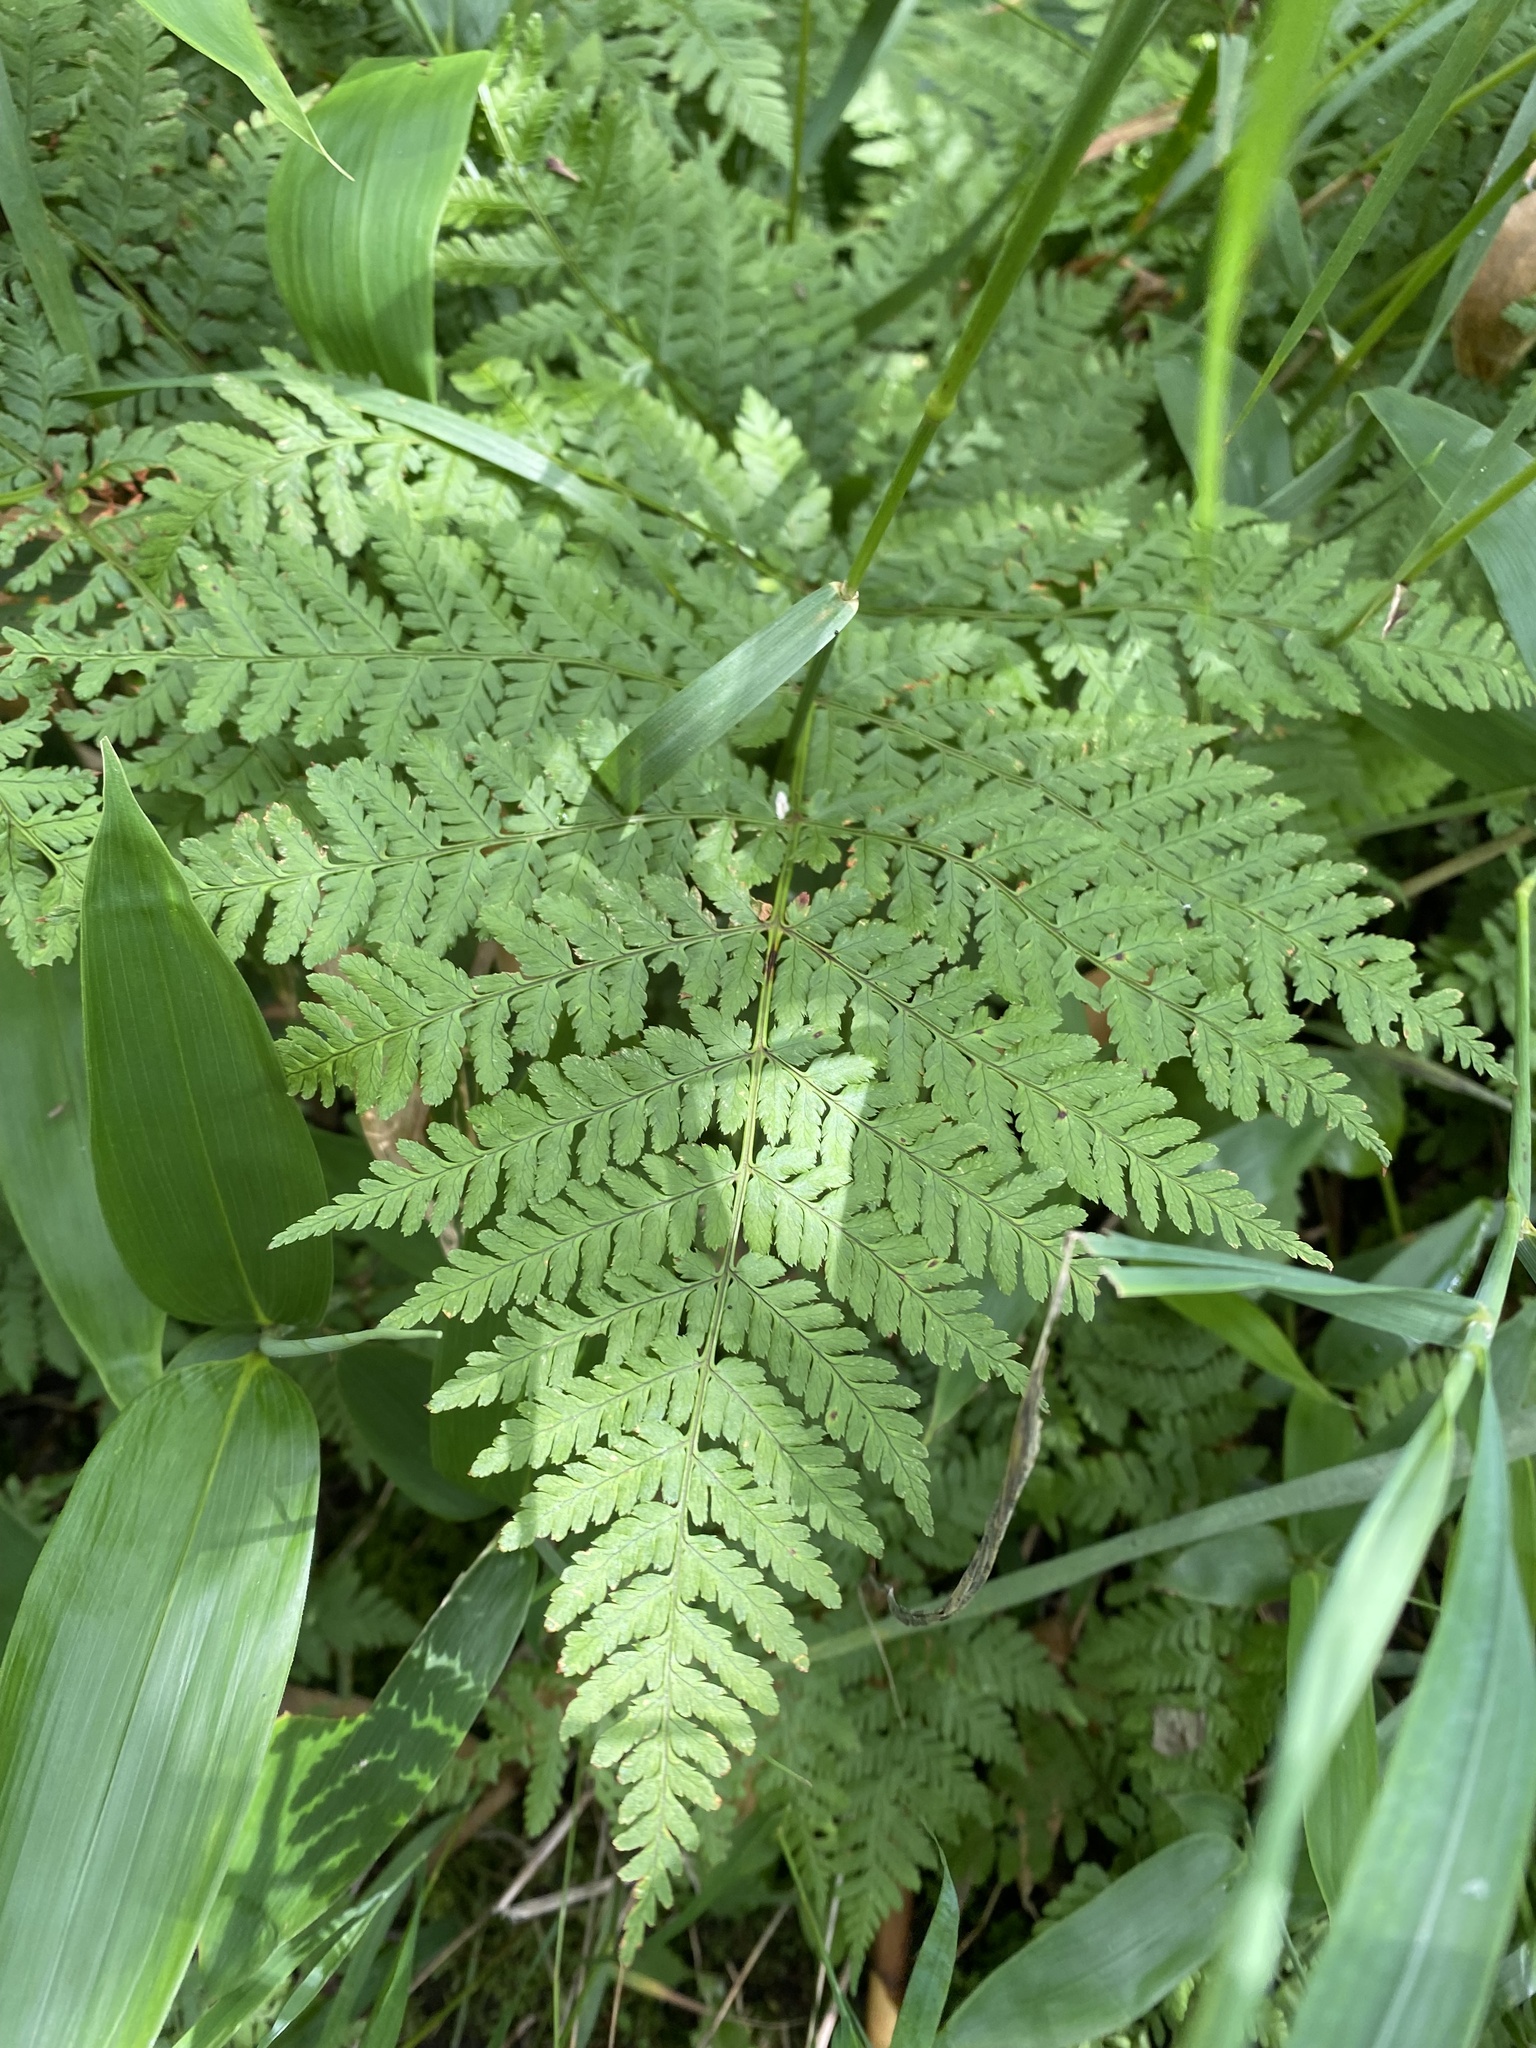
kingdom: Plantae
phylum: Tracheophyta
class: Polypodiopsida
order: Polypodiales
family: Dryopteridaceae
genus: Dryopteris
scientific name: Dryopteris expansa
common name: Northern buckler fern
